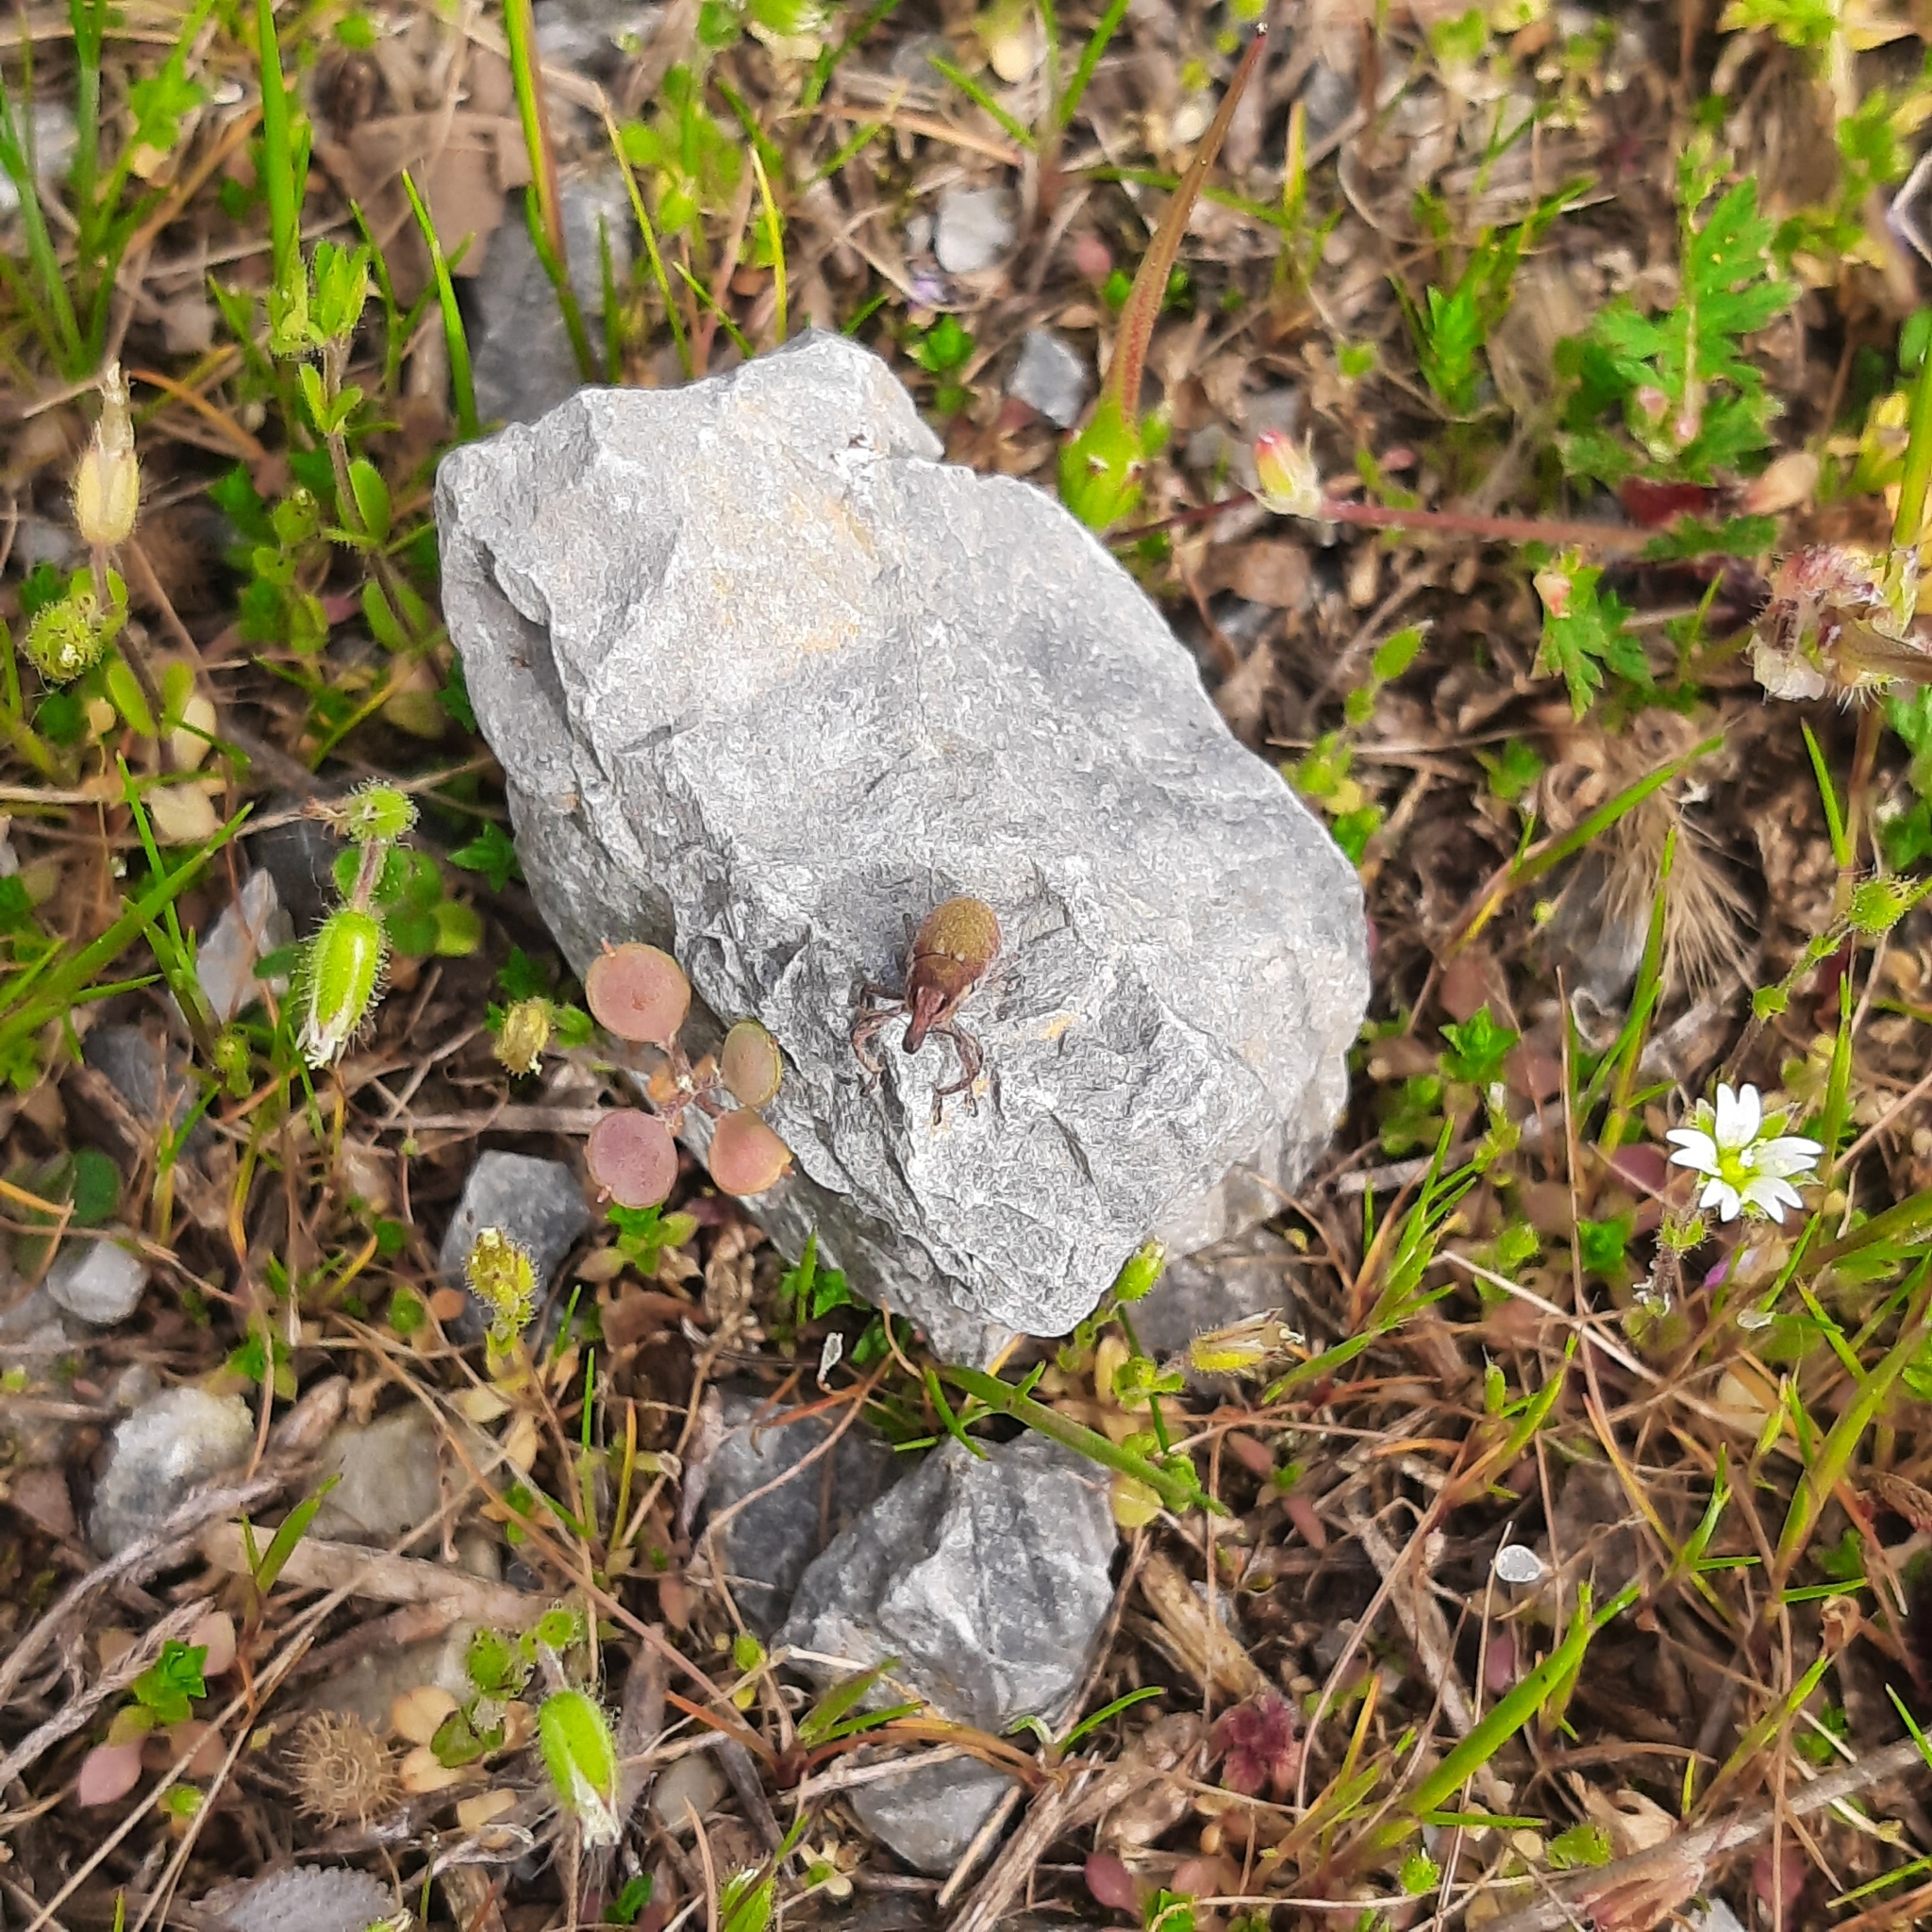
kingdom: Animalia
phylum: Arthropoda
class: Insecta
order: Coleoptera
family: Curculionidae
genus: Lixus
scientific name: Lixus vilis
